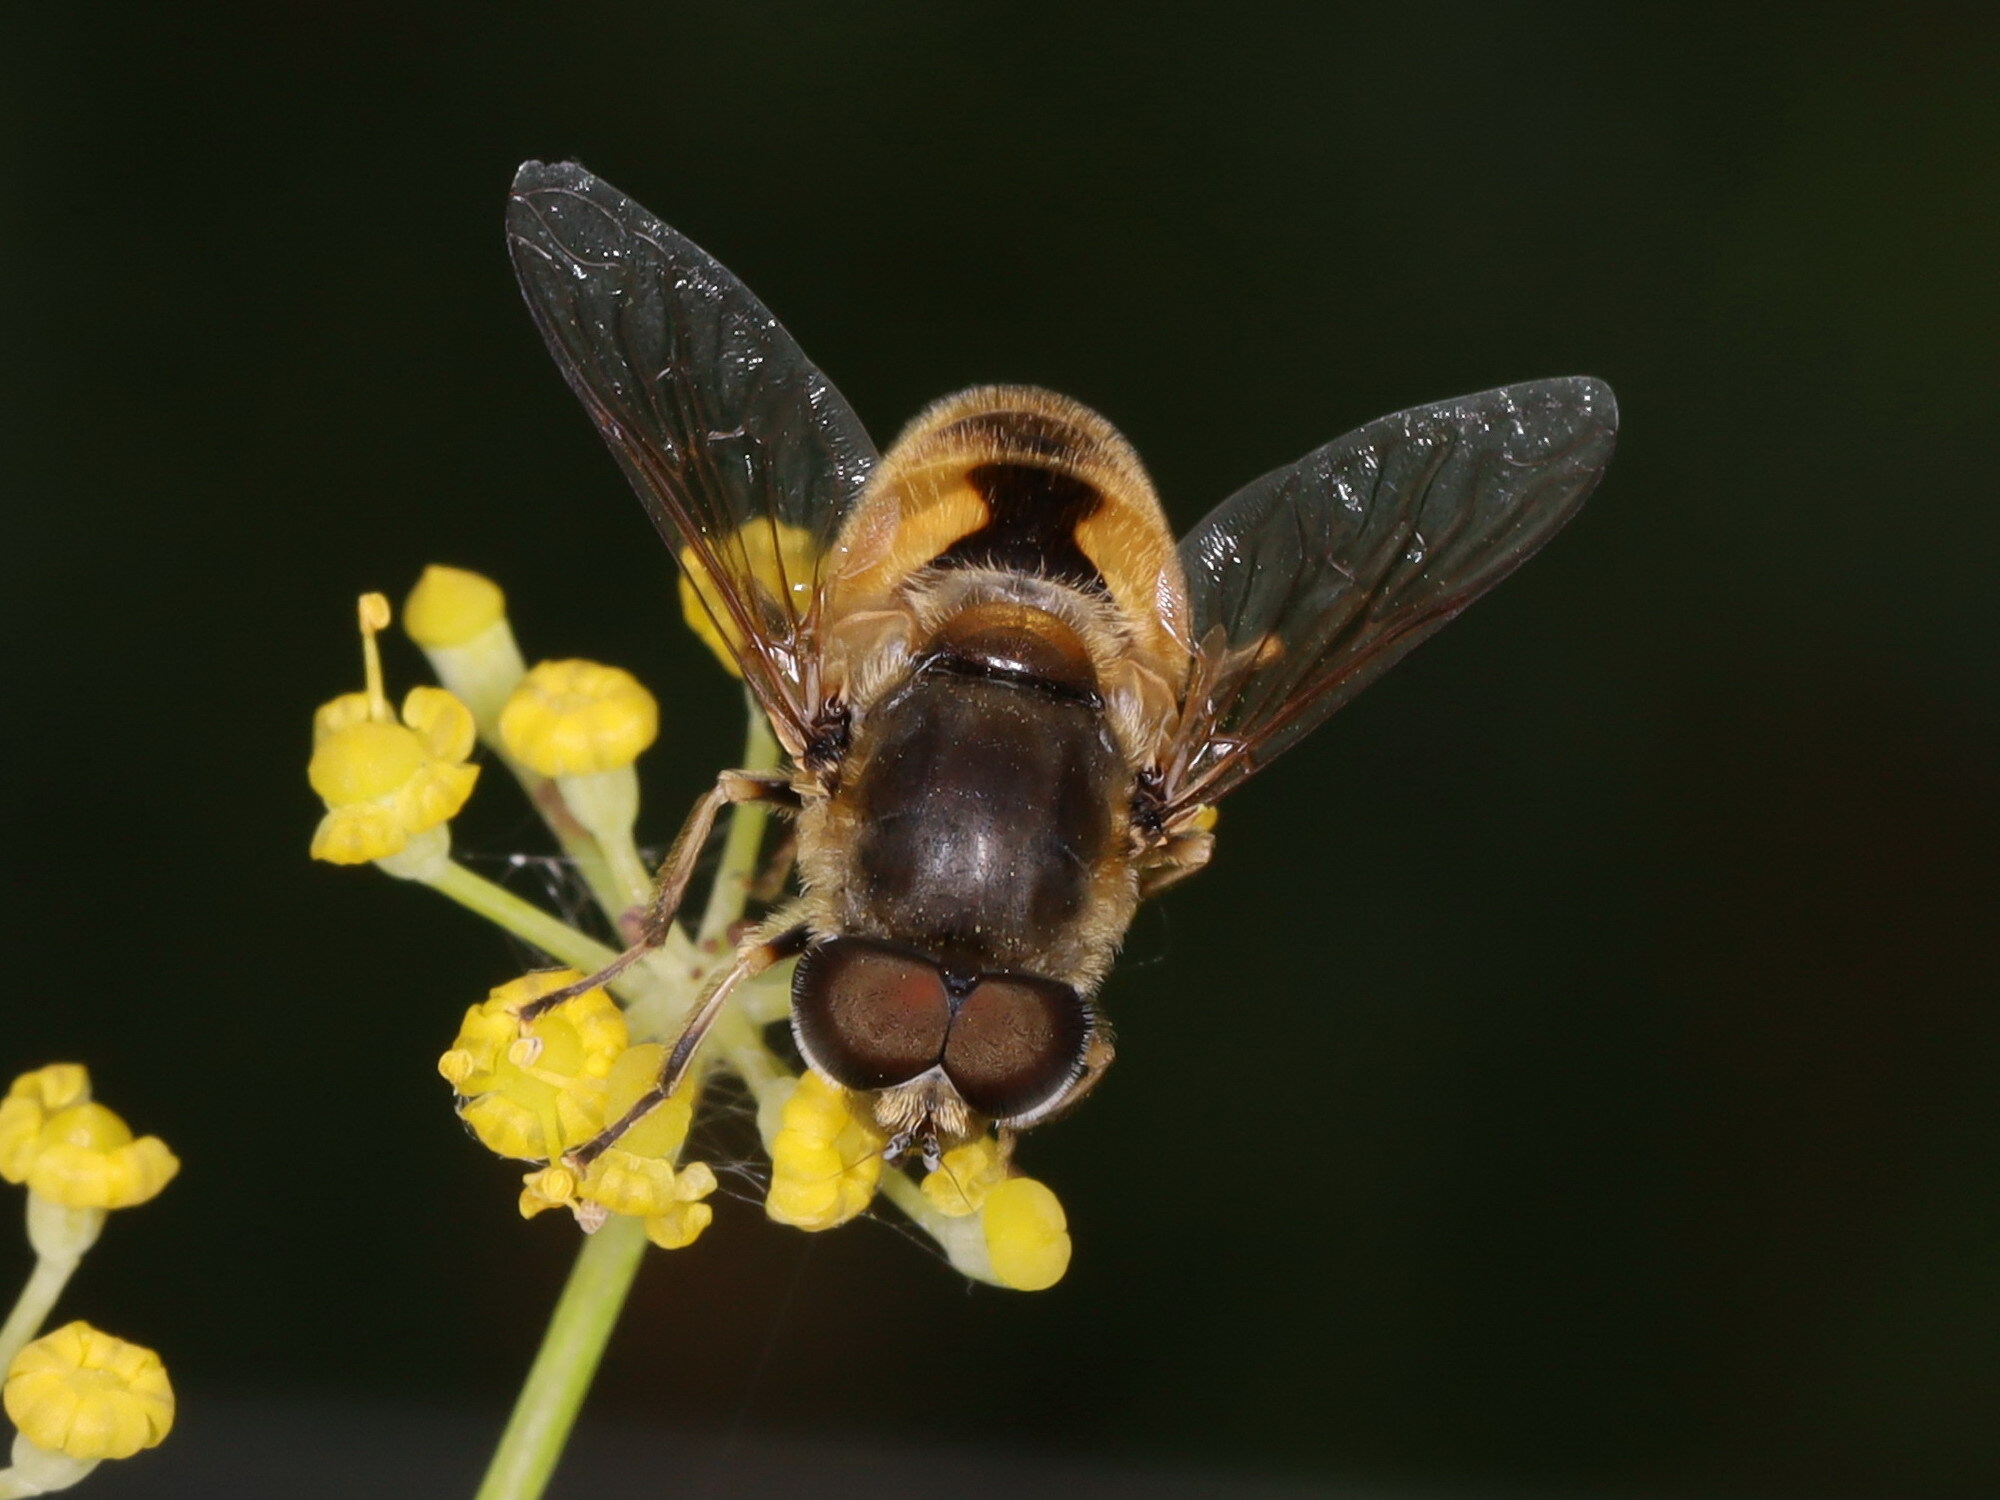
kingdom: Animalia
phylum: Arthropoda
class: Insecta
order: Diptera
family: Syrphidae
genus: Eristalis
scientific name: Eristalis arbustorum
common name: Hover fly
